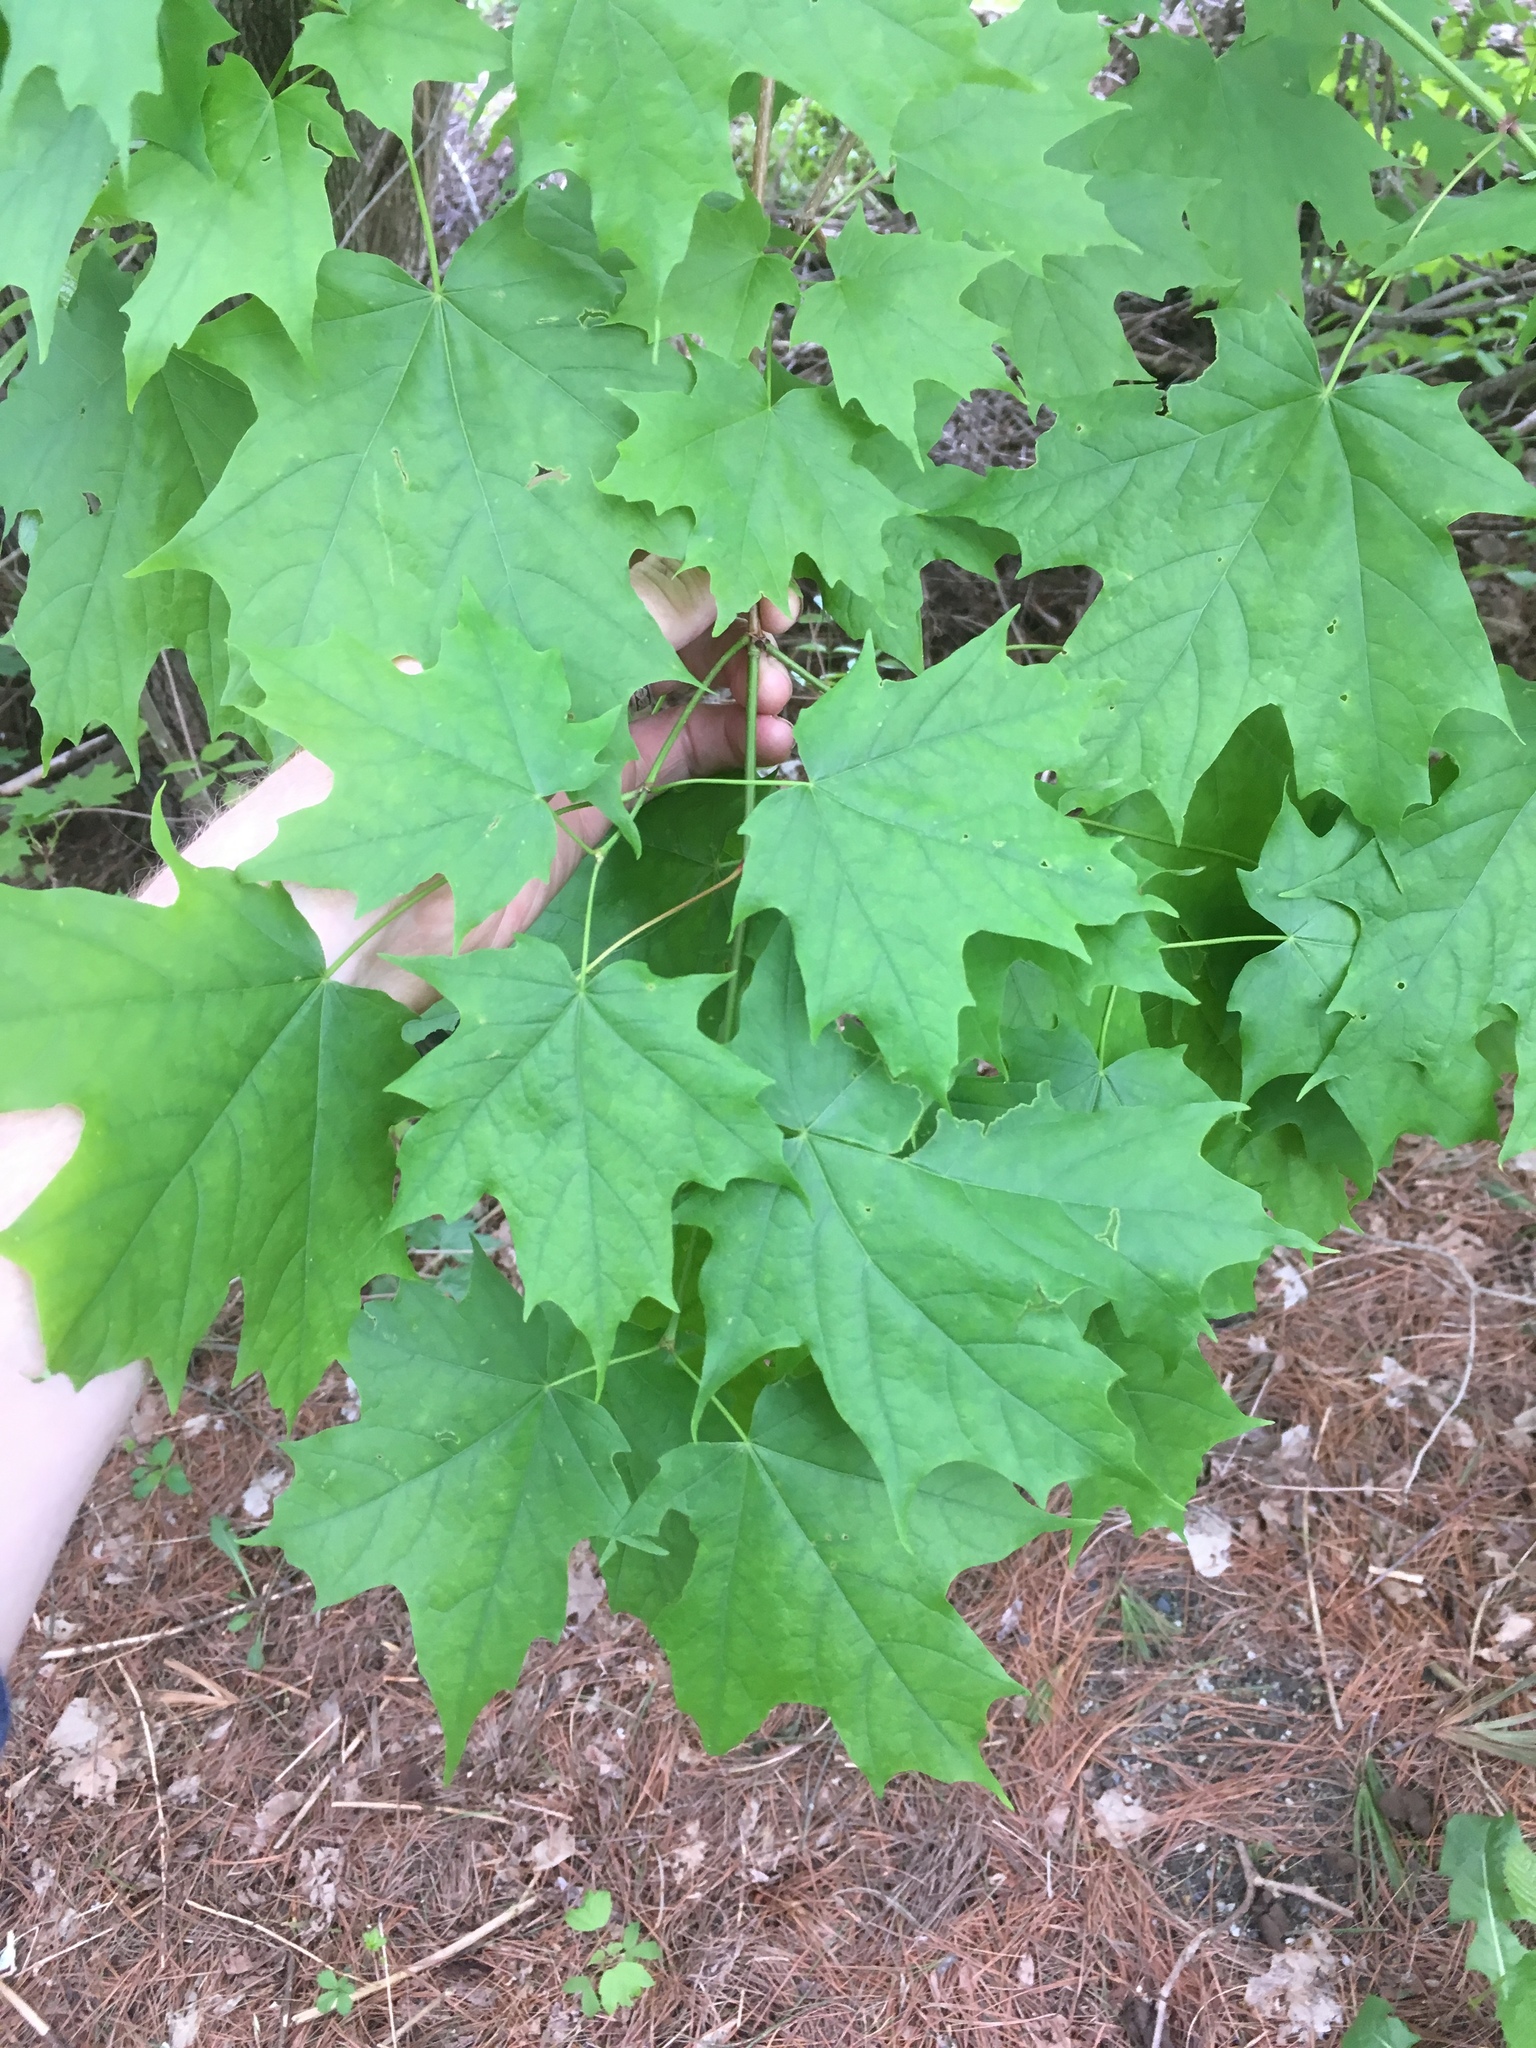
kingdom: Plantae
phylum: Tracheophyta
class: Magnoliopsida
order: Sapindales
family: Sapindaceae
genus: Acer
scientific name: Acer saccharum
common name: Sugar maple
